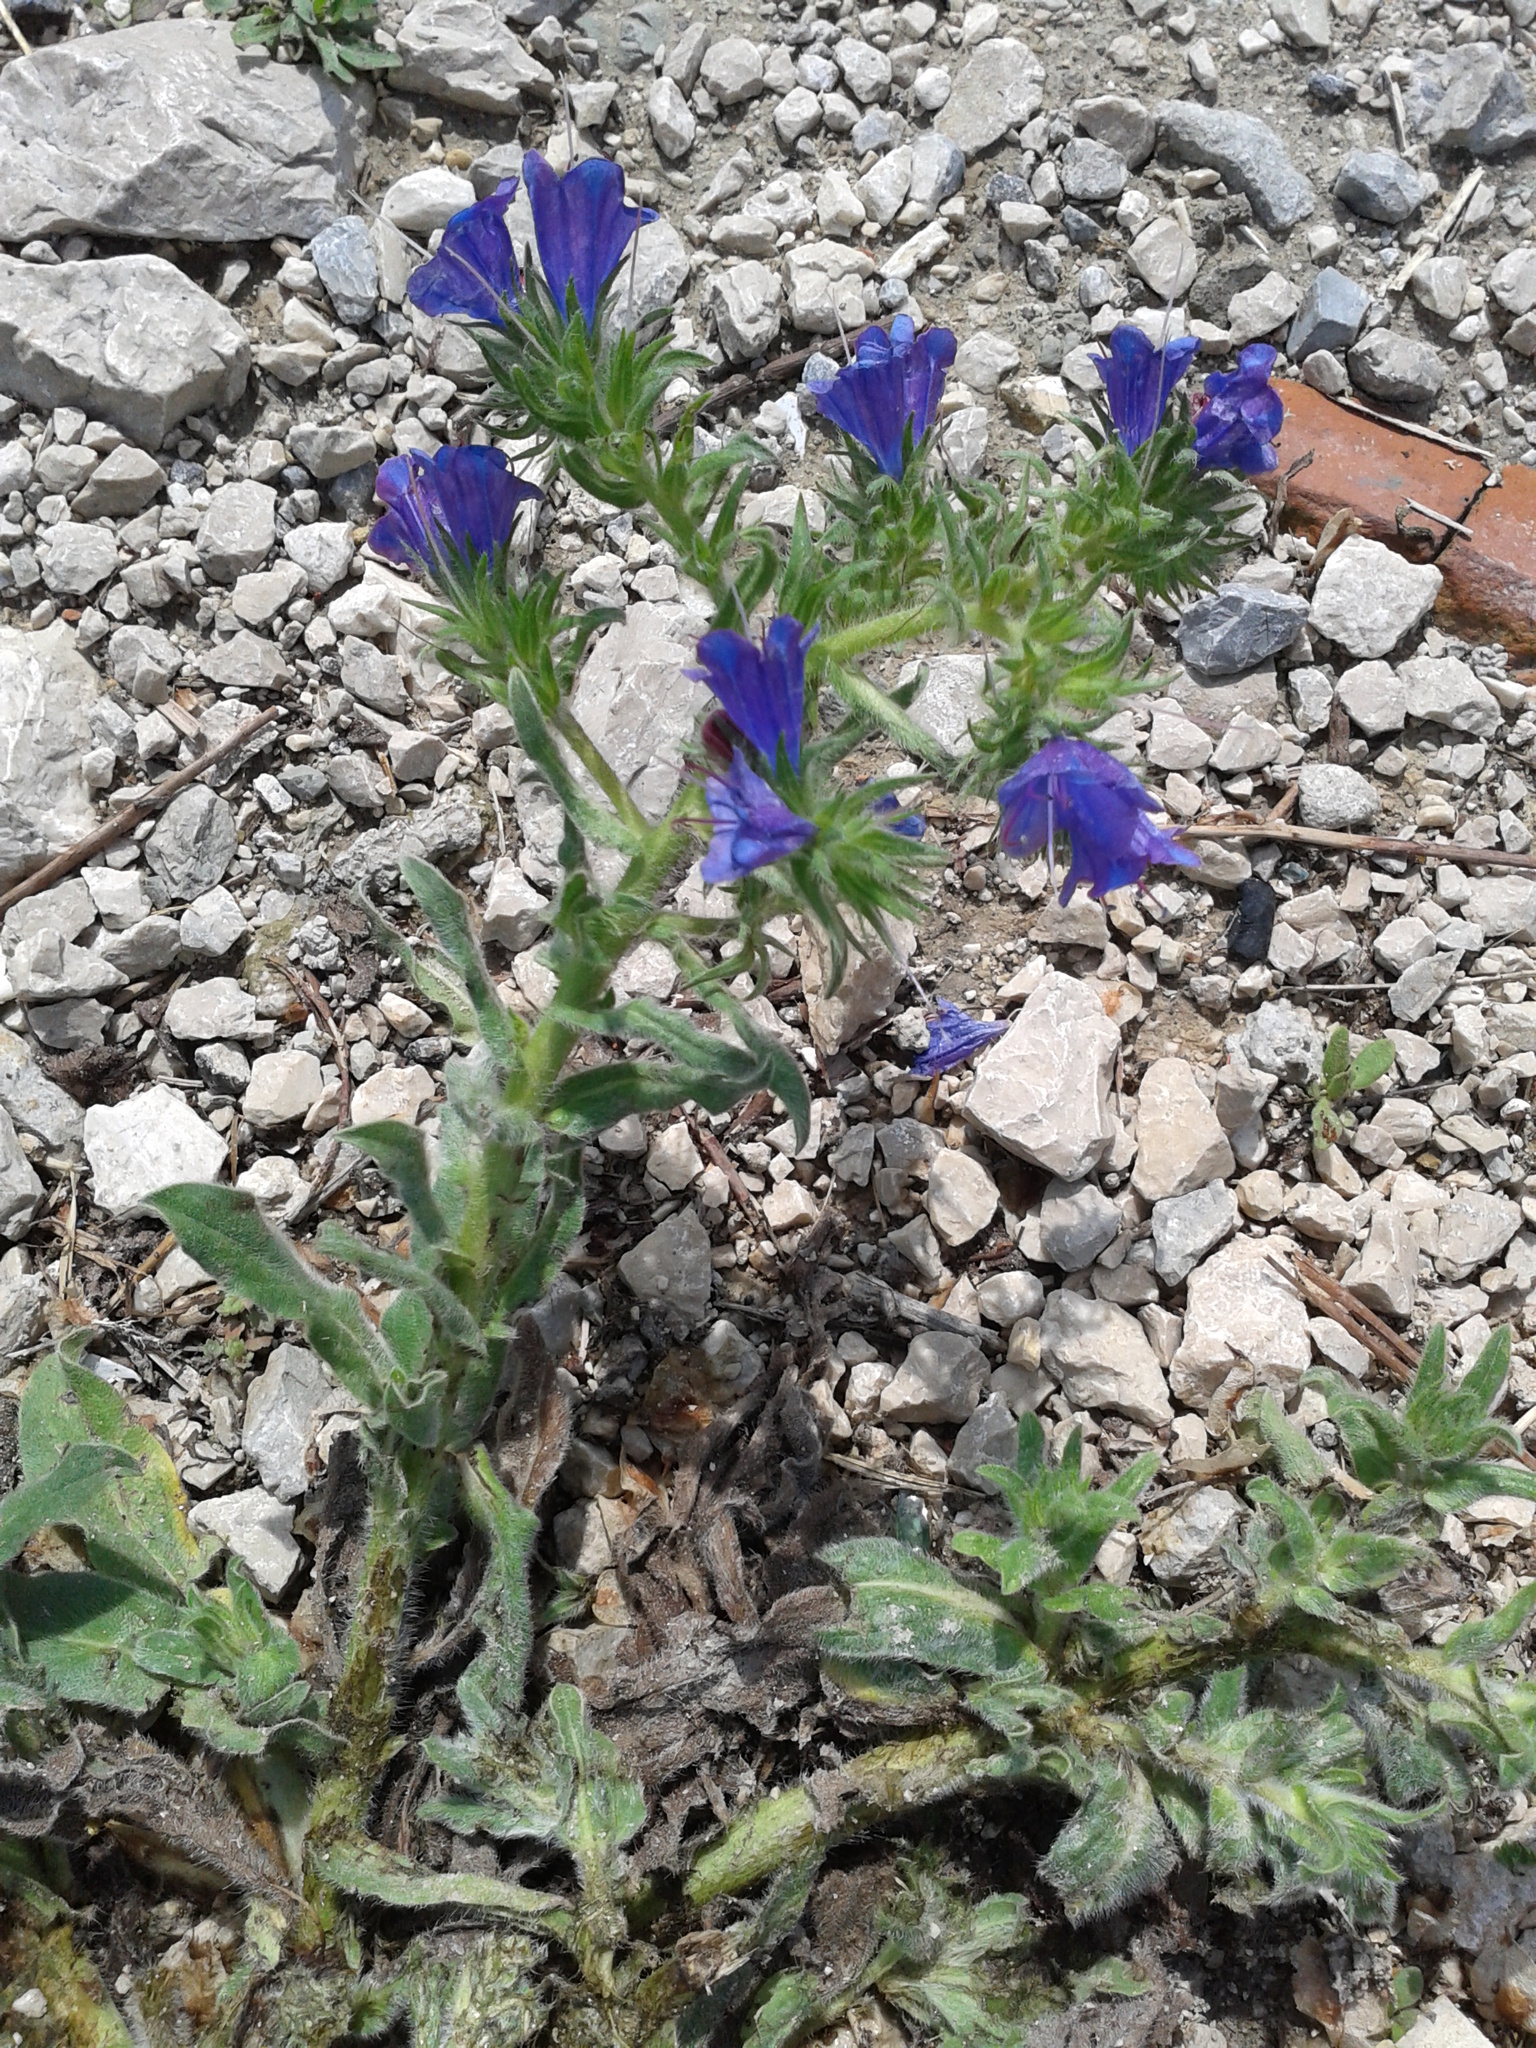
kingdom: Plantae
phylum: Tracheophyta
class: Magnoliopsida
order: Boraginales
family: Boraginaceae
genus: Echium
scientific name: Echium vulgare
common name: Common viper's bugloss
